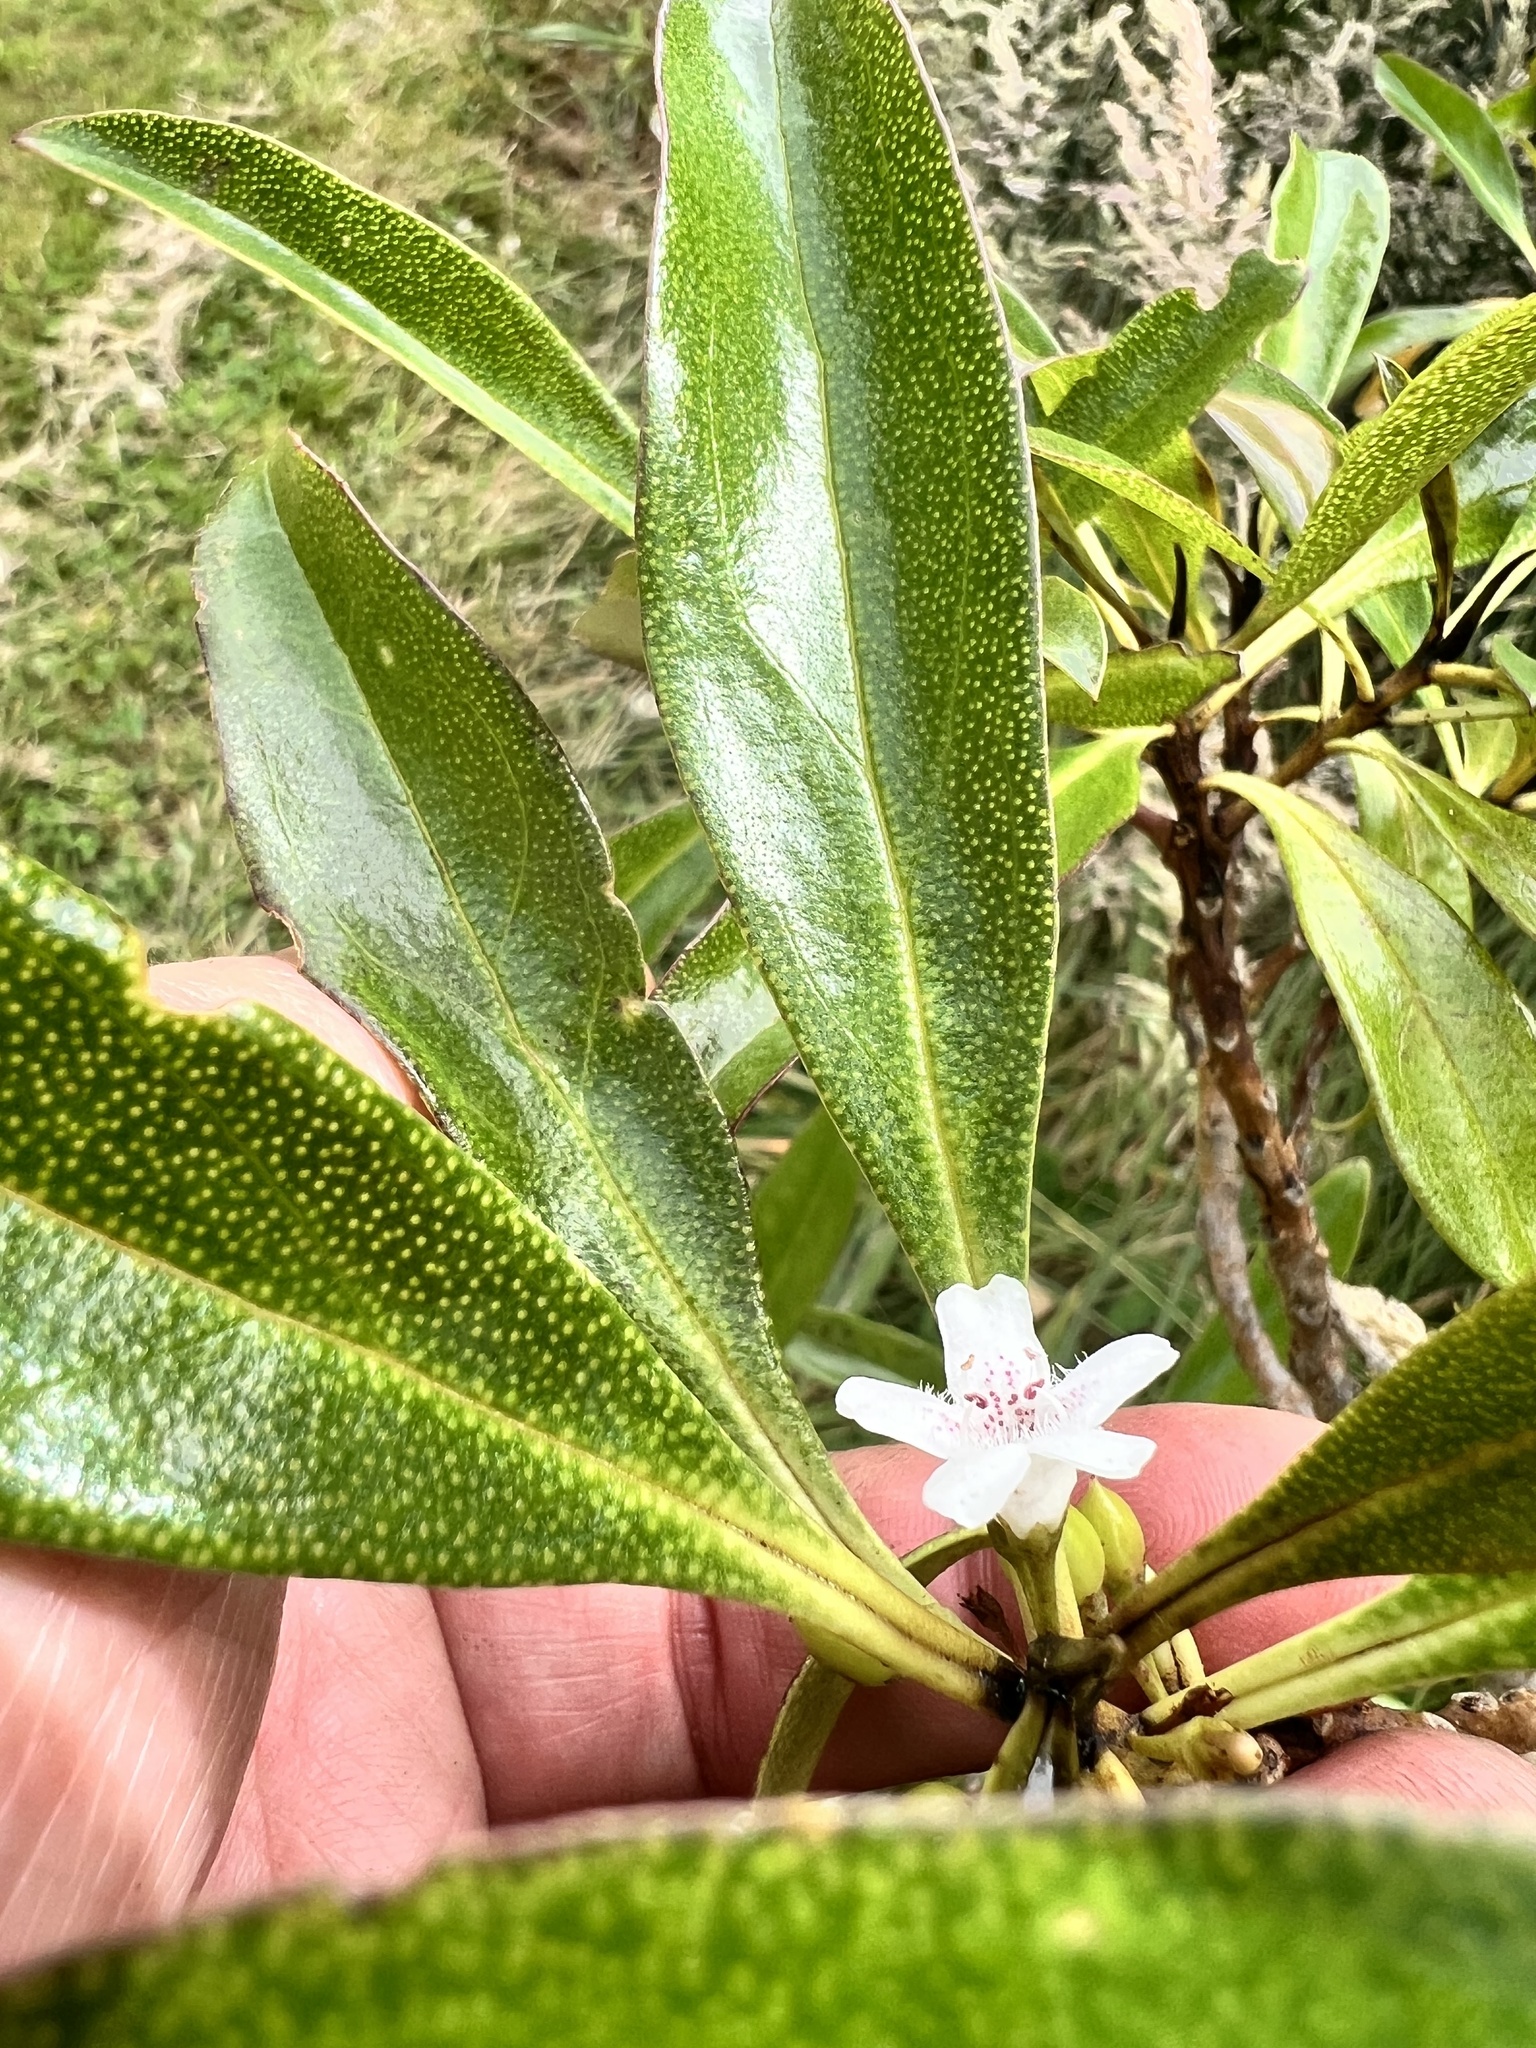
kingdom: Plantae
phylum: Tracheophyta
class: Magnoliopsida
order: Lamiales
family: Scrophulariaceae
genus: Myoporum
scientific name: Myoporum laetum
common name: Ngaio tree
